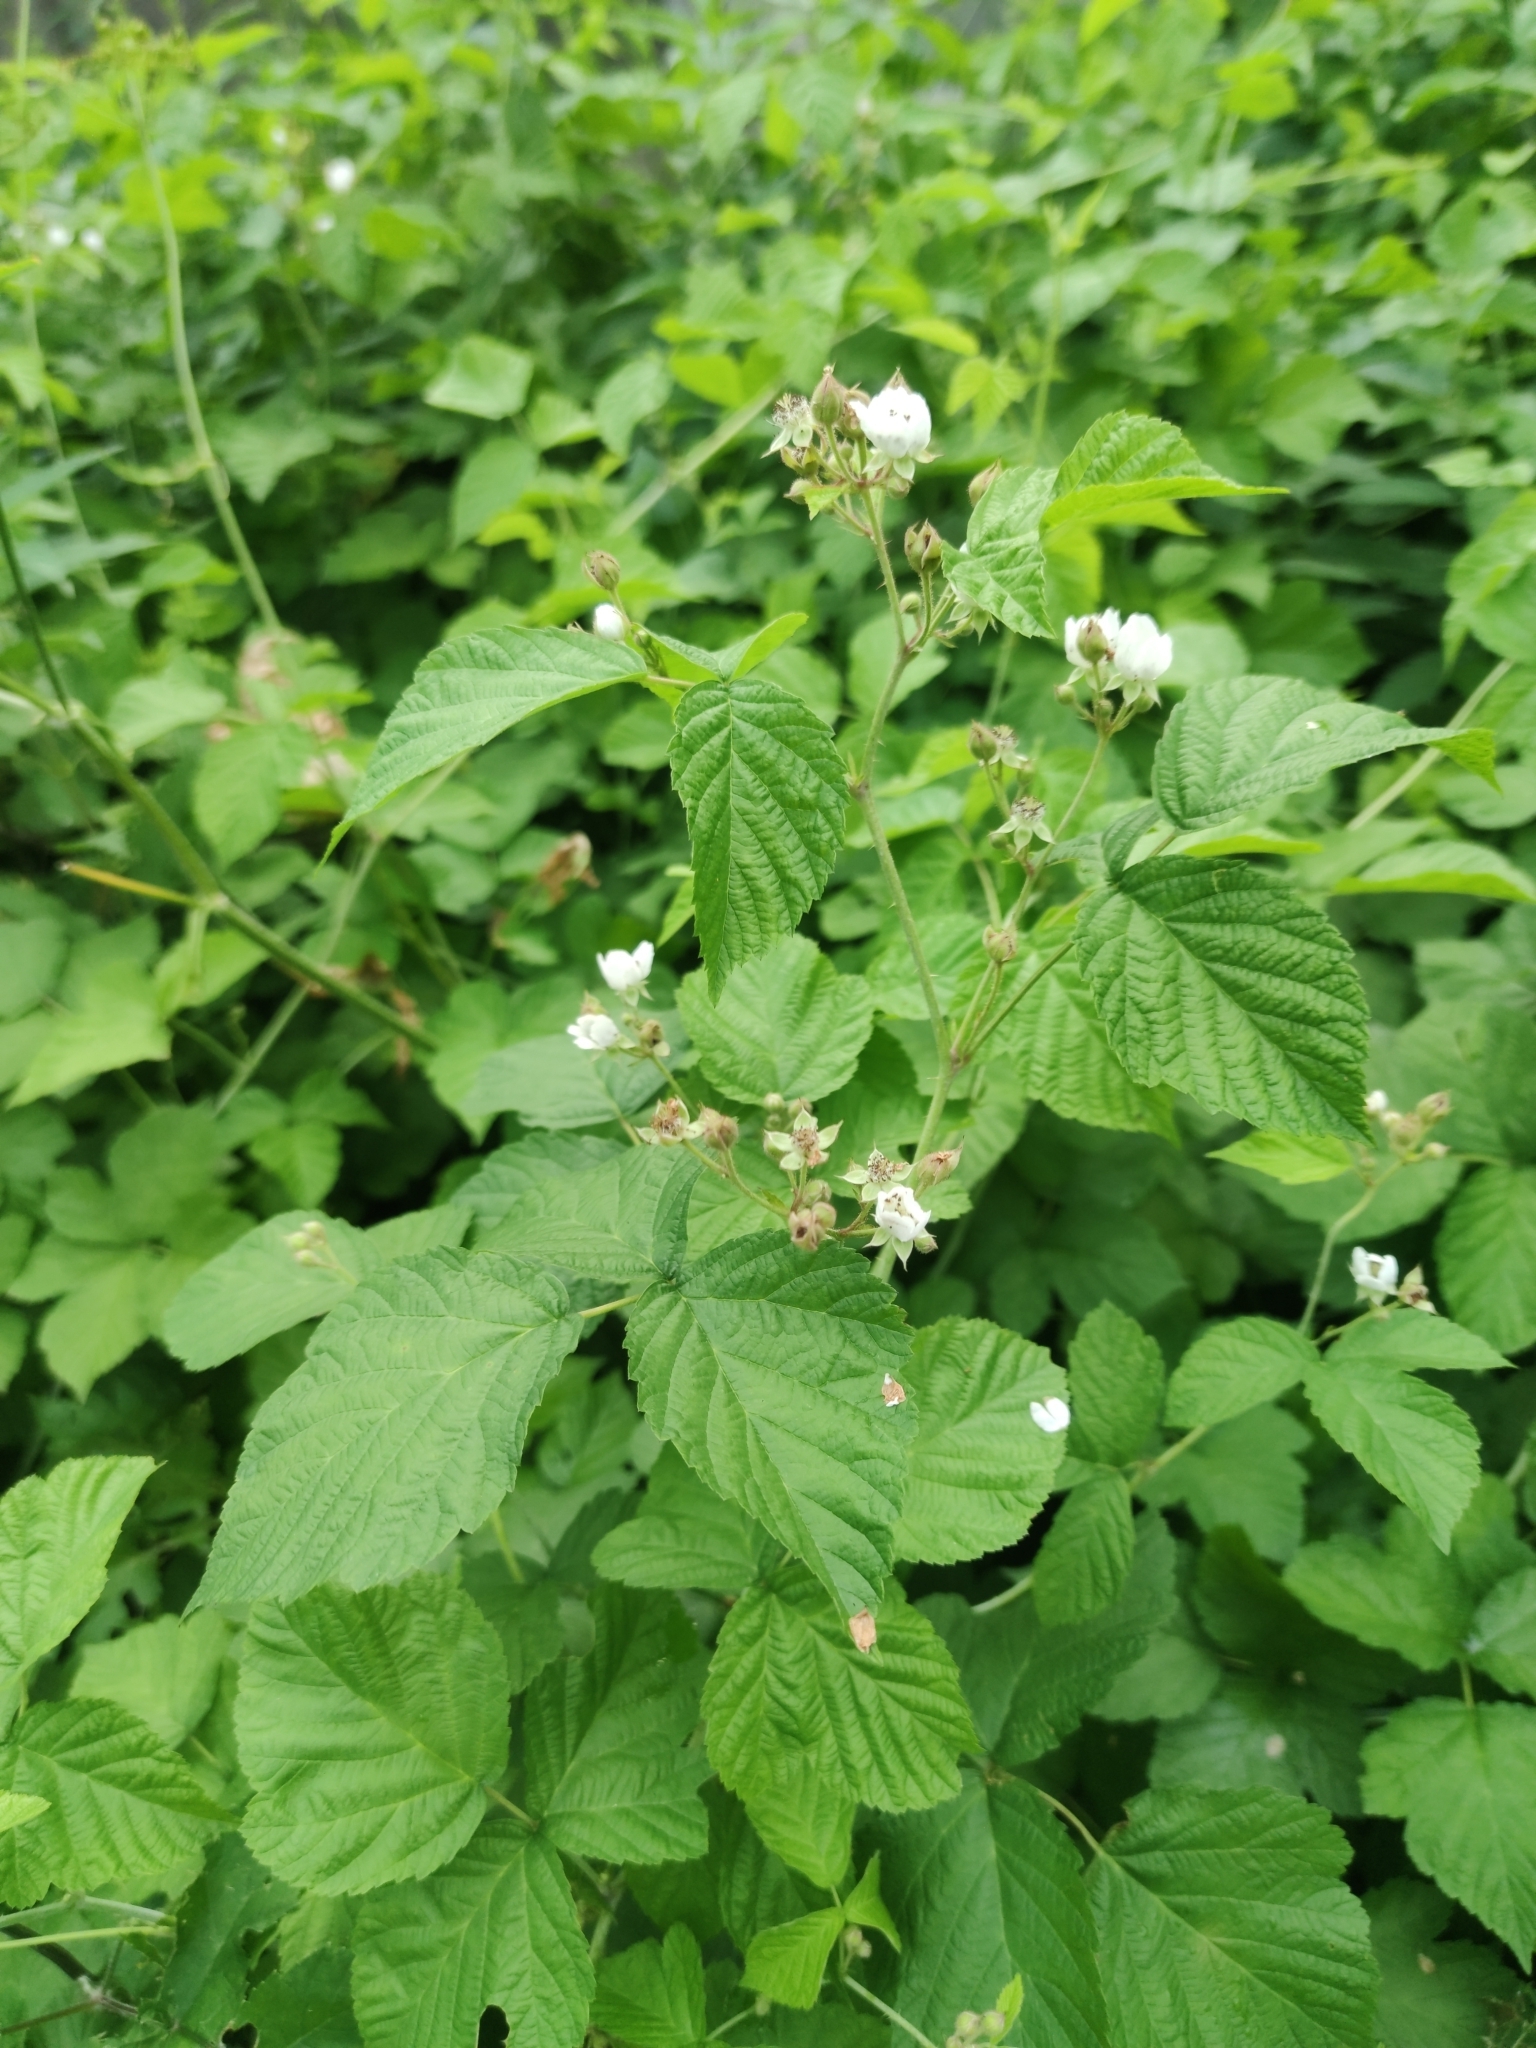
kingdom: Plantae
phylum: Tracheophyta
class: Magnoliopsida
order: Rosales
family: Rosaceae
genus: Rubus
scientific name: Rubus caesius
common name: Dewberry
